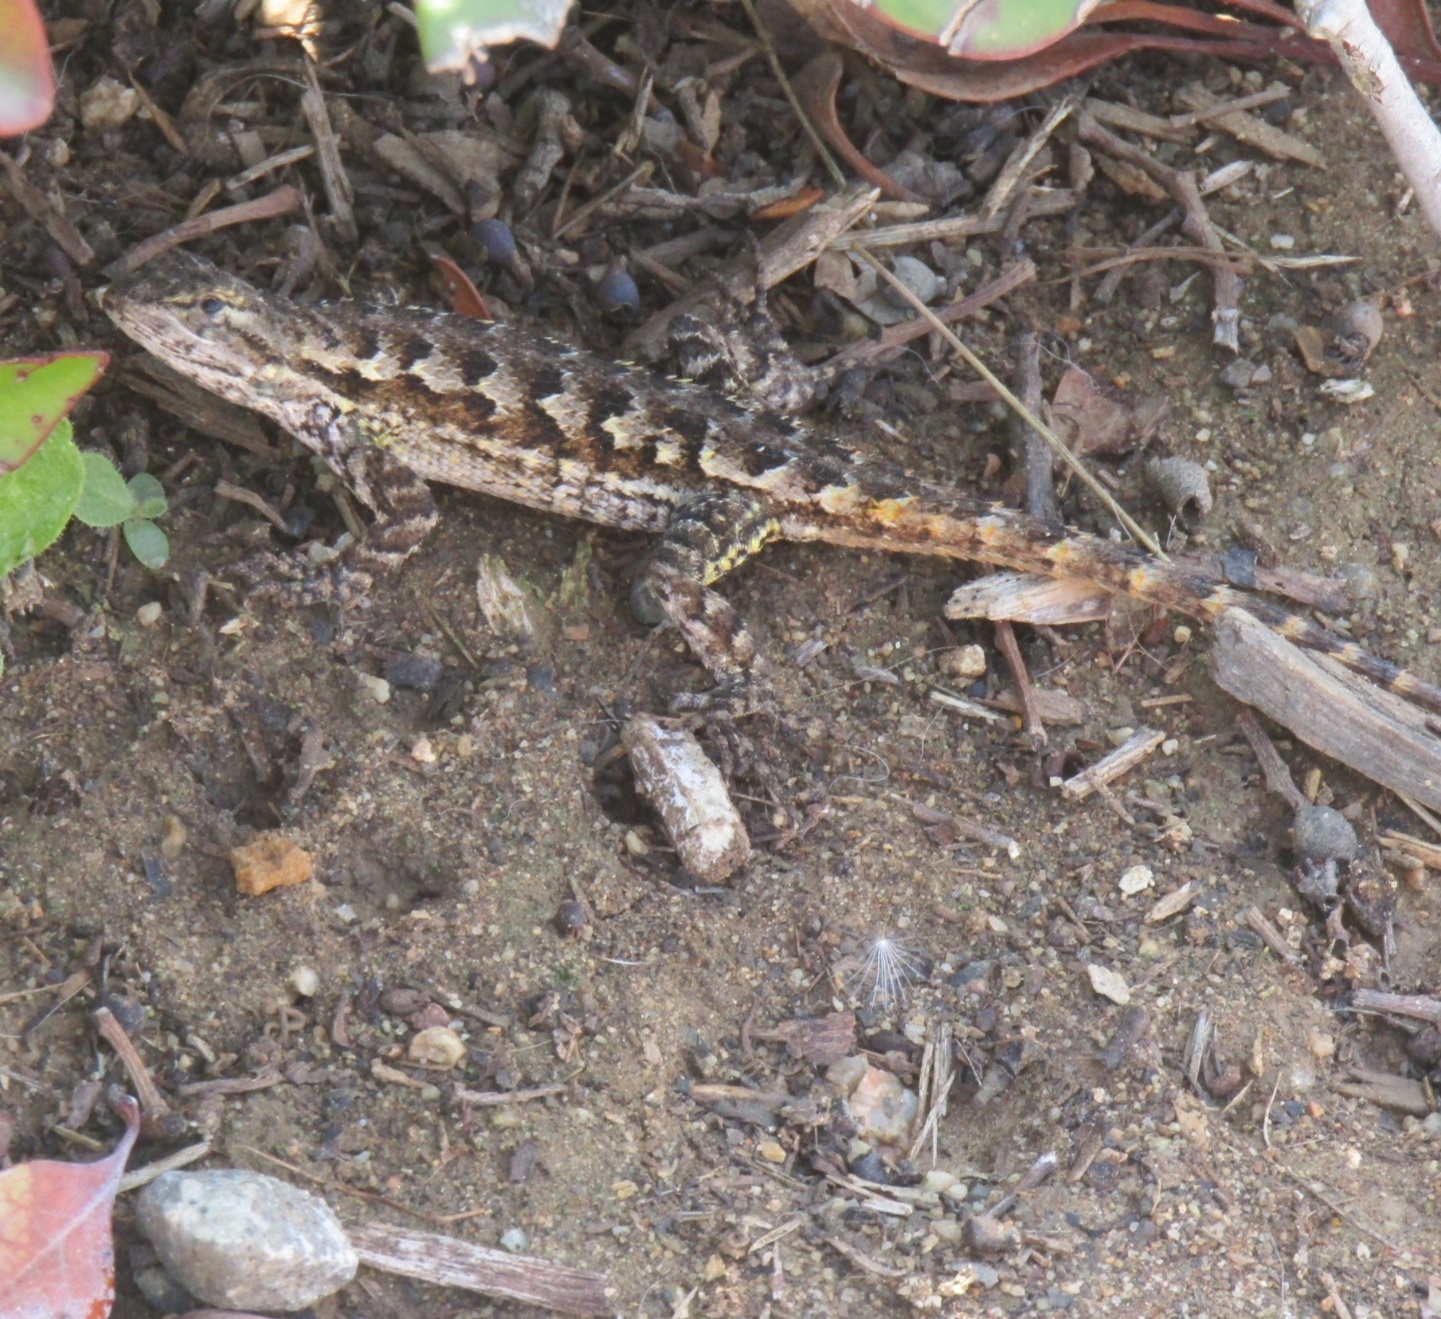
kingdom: Animalia
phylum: Chordata
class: Squamata
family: Phrynosomatidae
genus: Sceloporus
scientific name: Sceloporus occidentalis
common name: Western fence lizard
